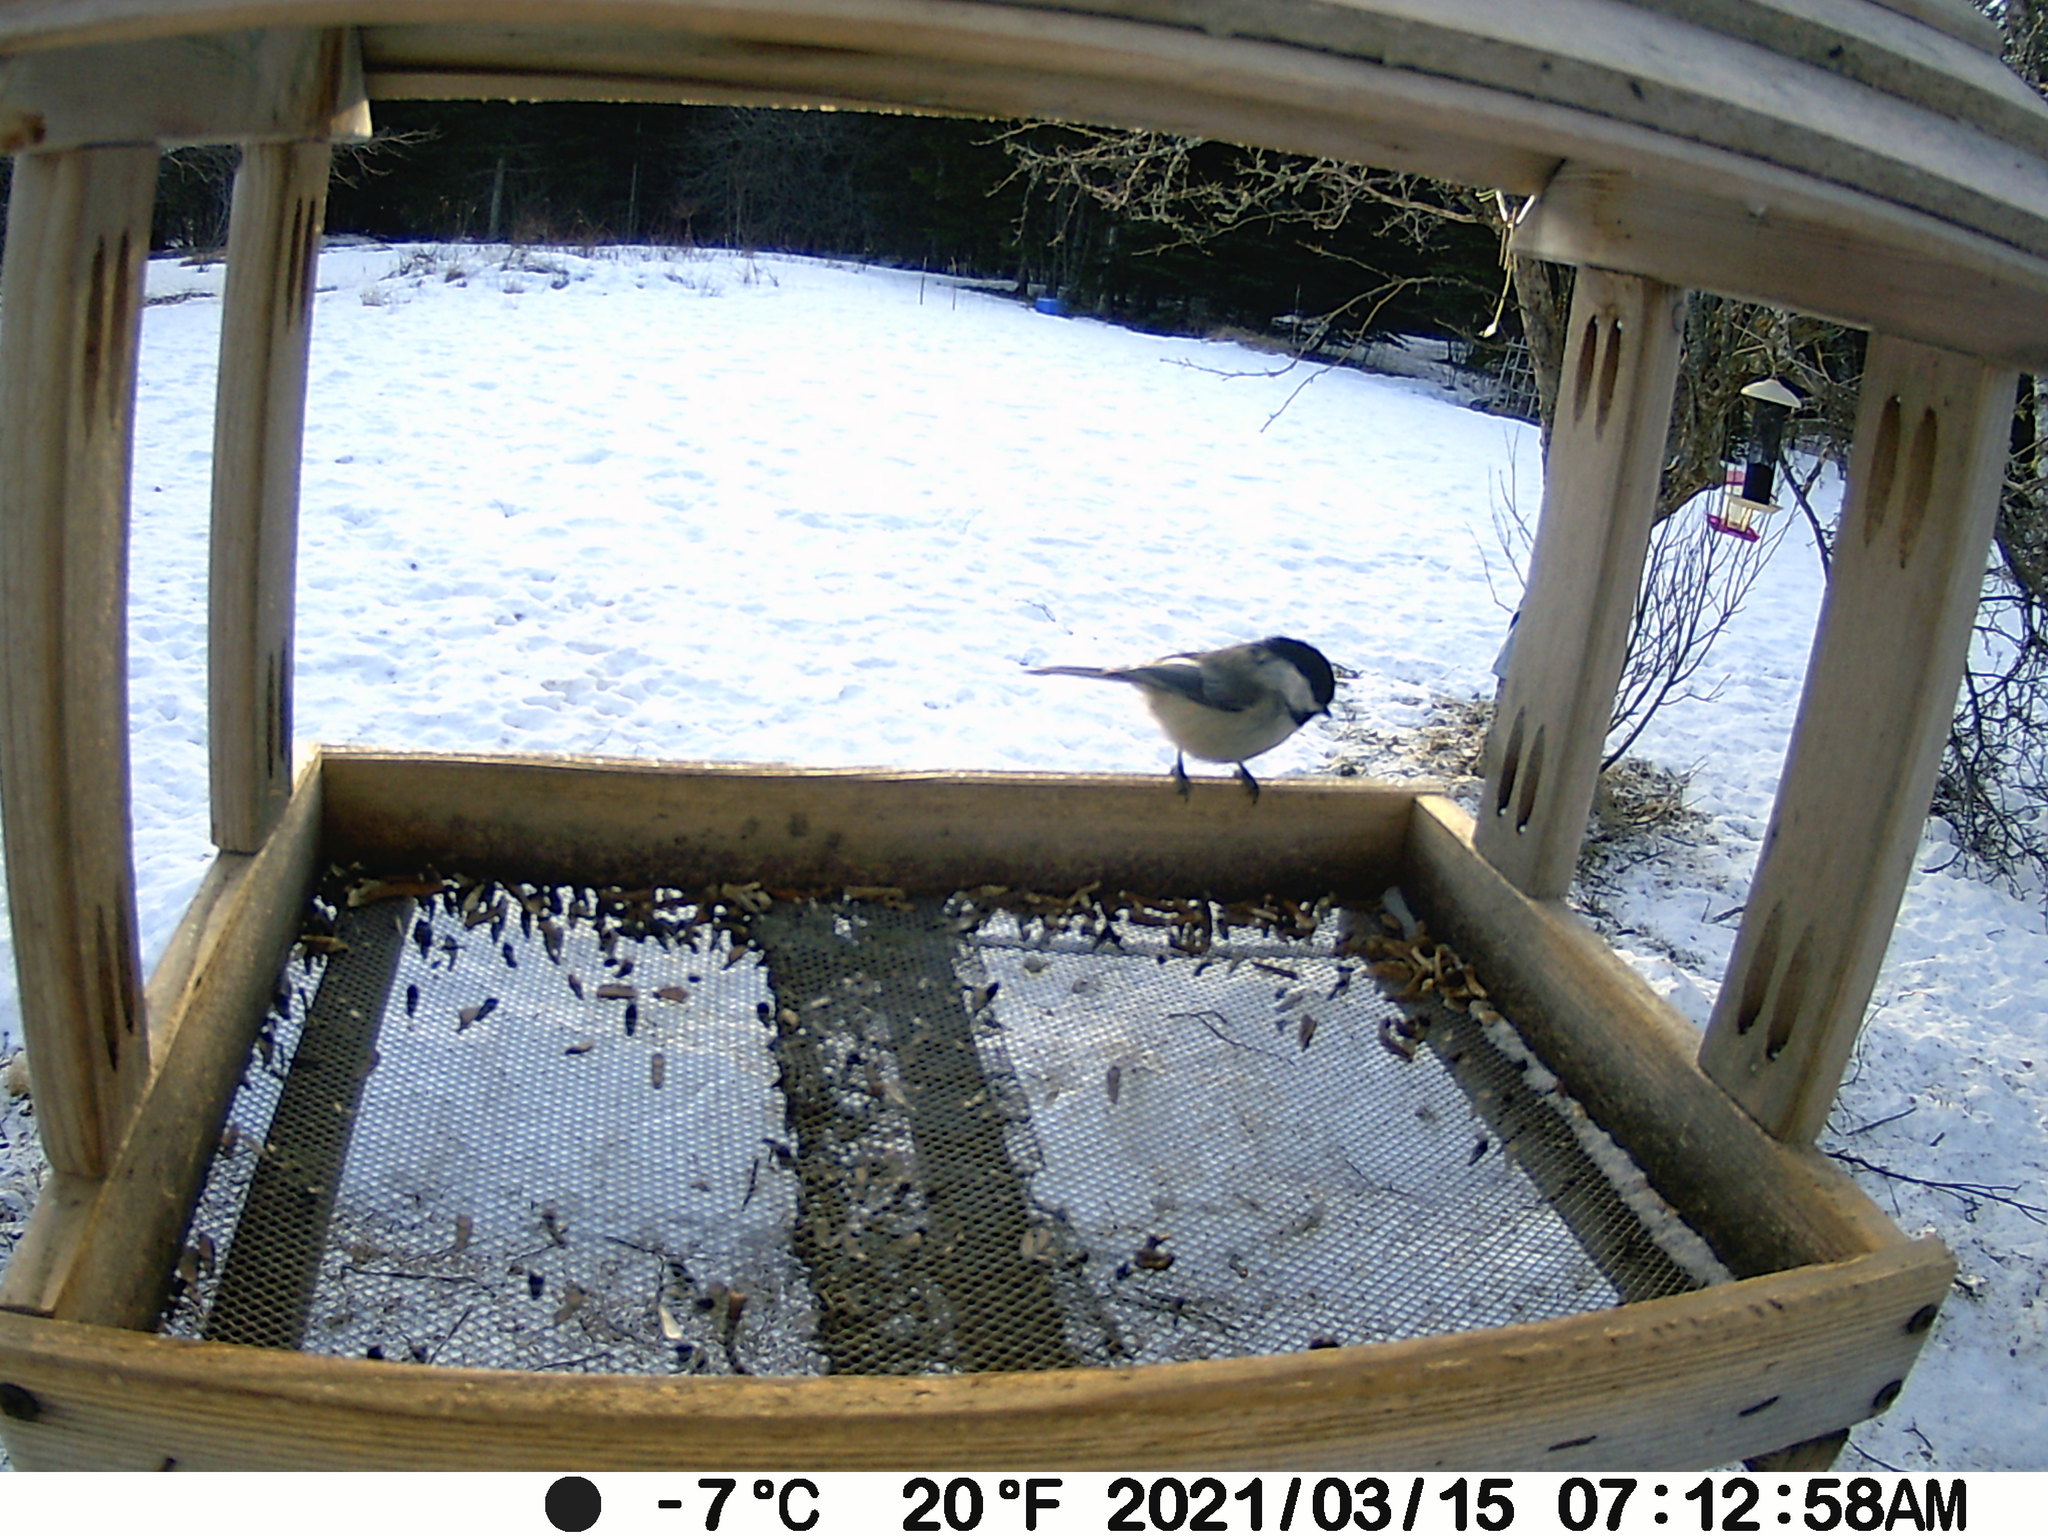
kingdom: Animalia
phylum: Chordata
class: Aves
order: Passeriformes
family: Paridae
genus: Poecile
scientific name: Poecile atricapillus
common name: Black-capped chickadee
